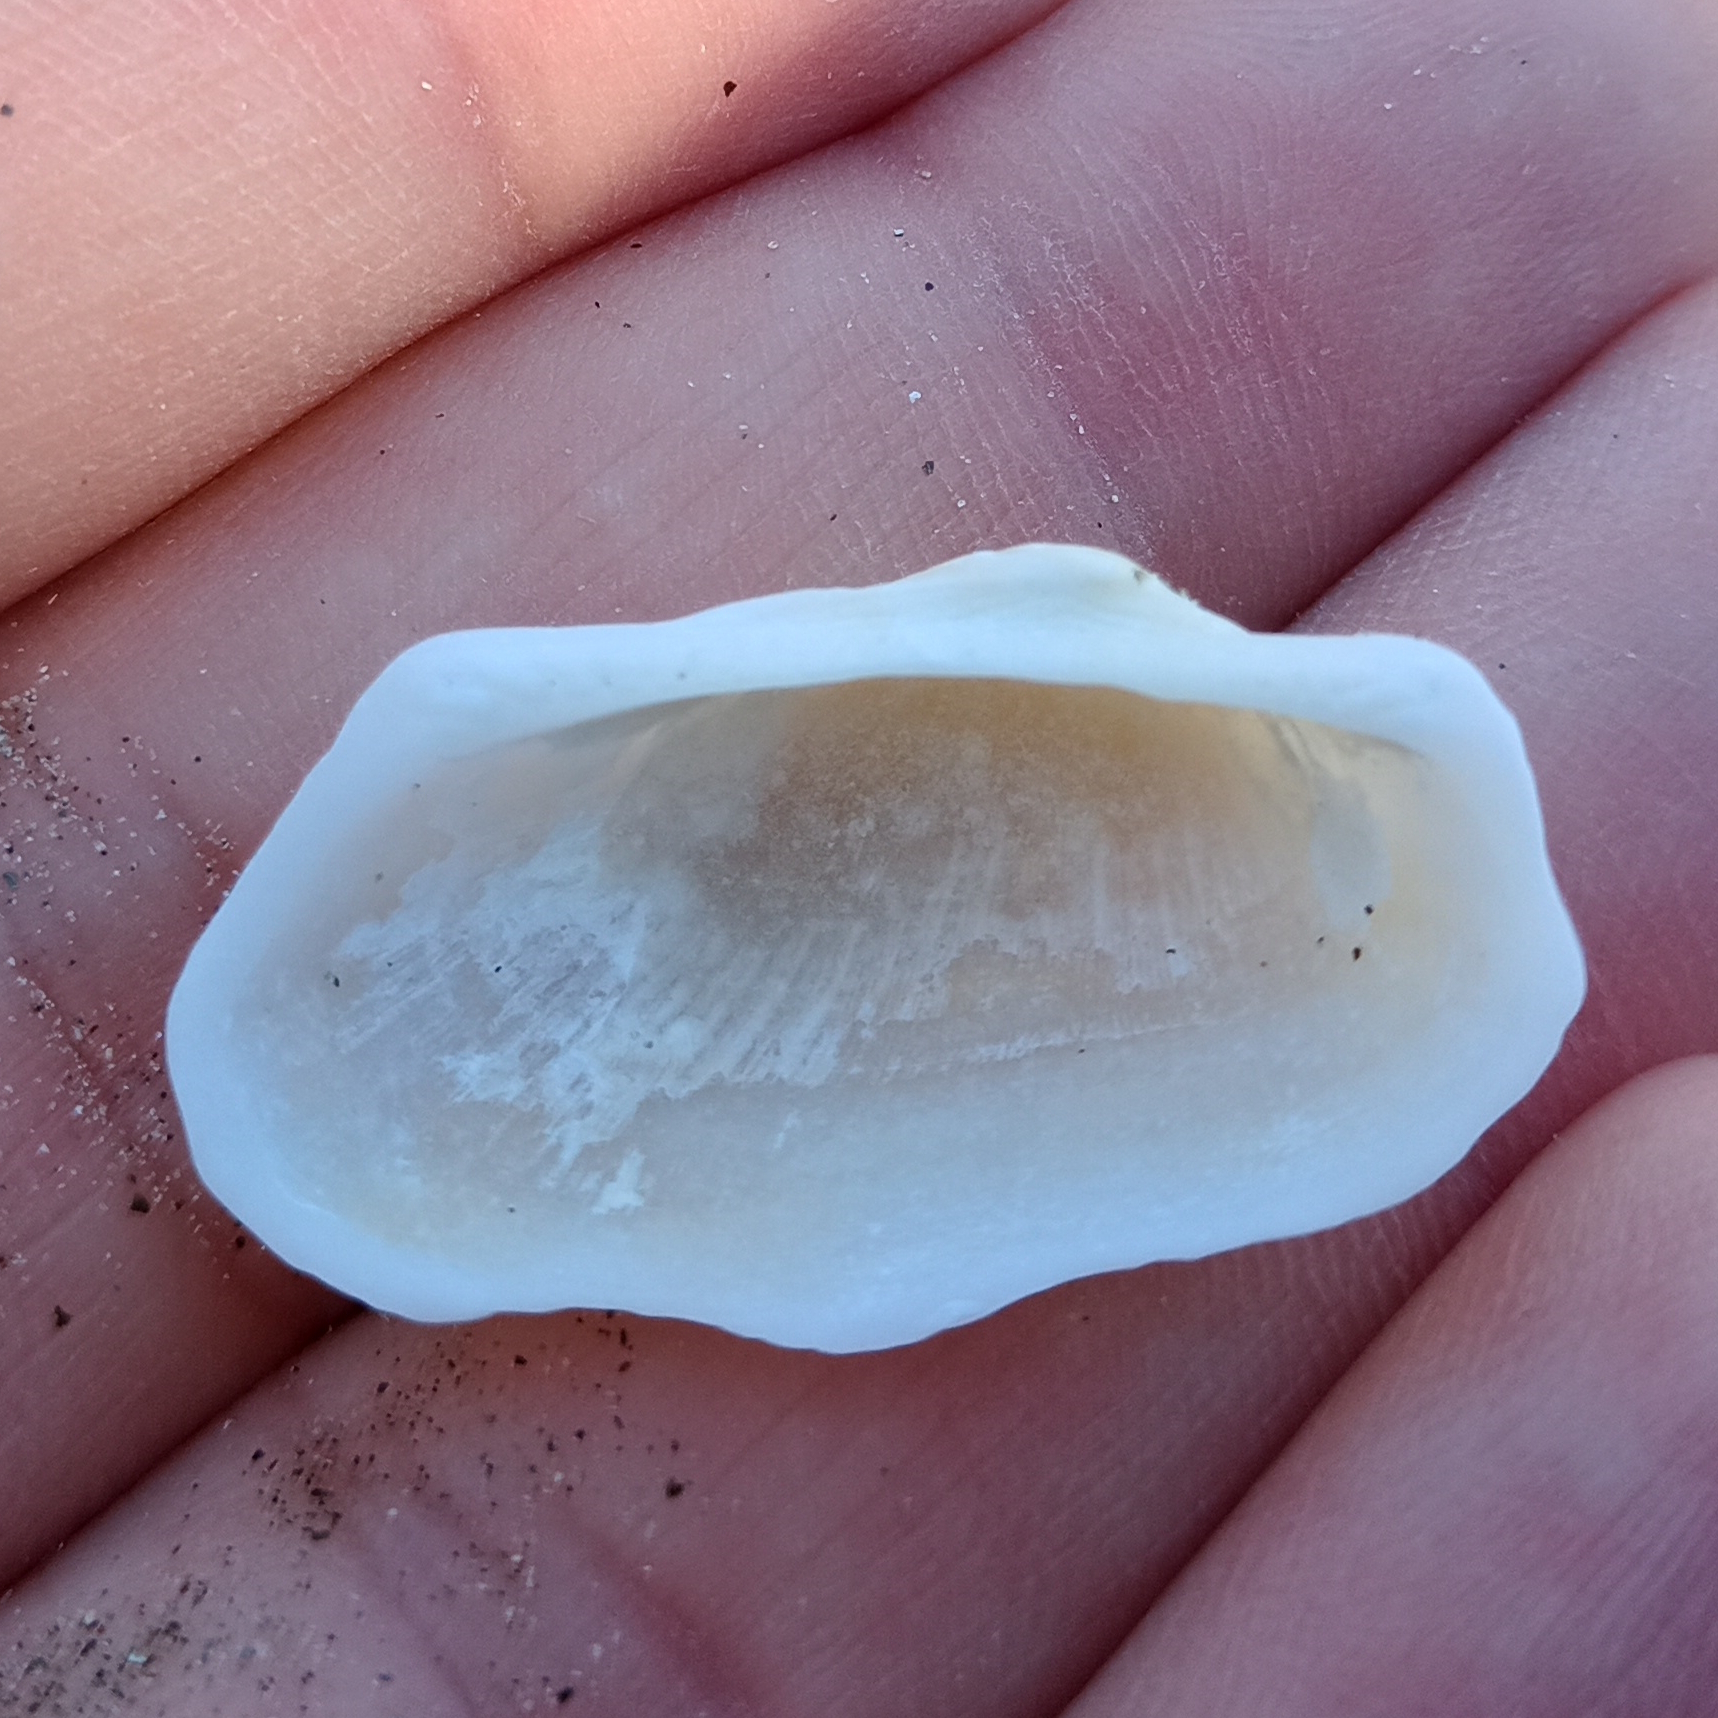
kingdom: Animalia
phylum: Mollusca
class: Bivalvia
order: Arcida
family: Arcidae
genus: Barbatia
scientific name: Barbatia candida
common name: White-beard ark
